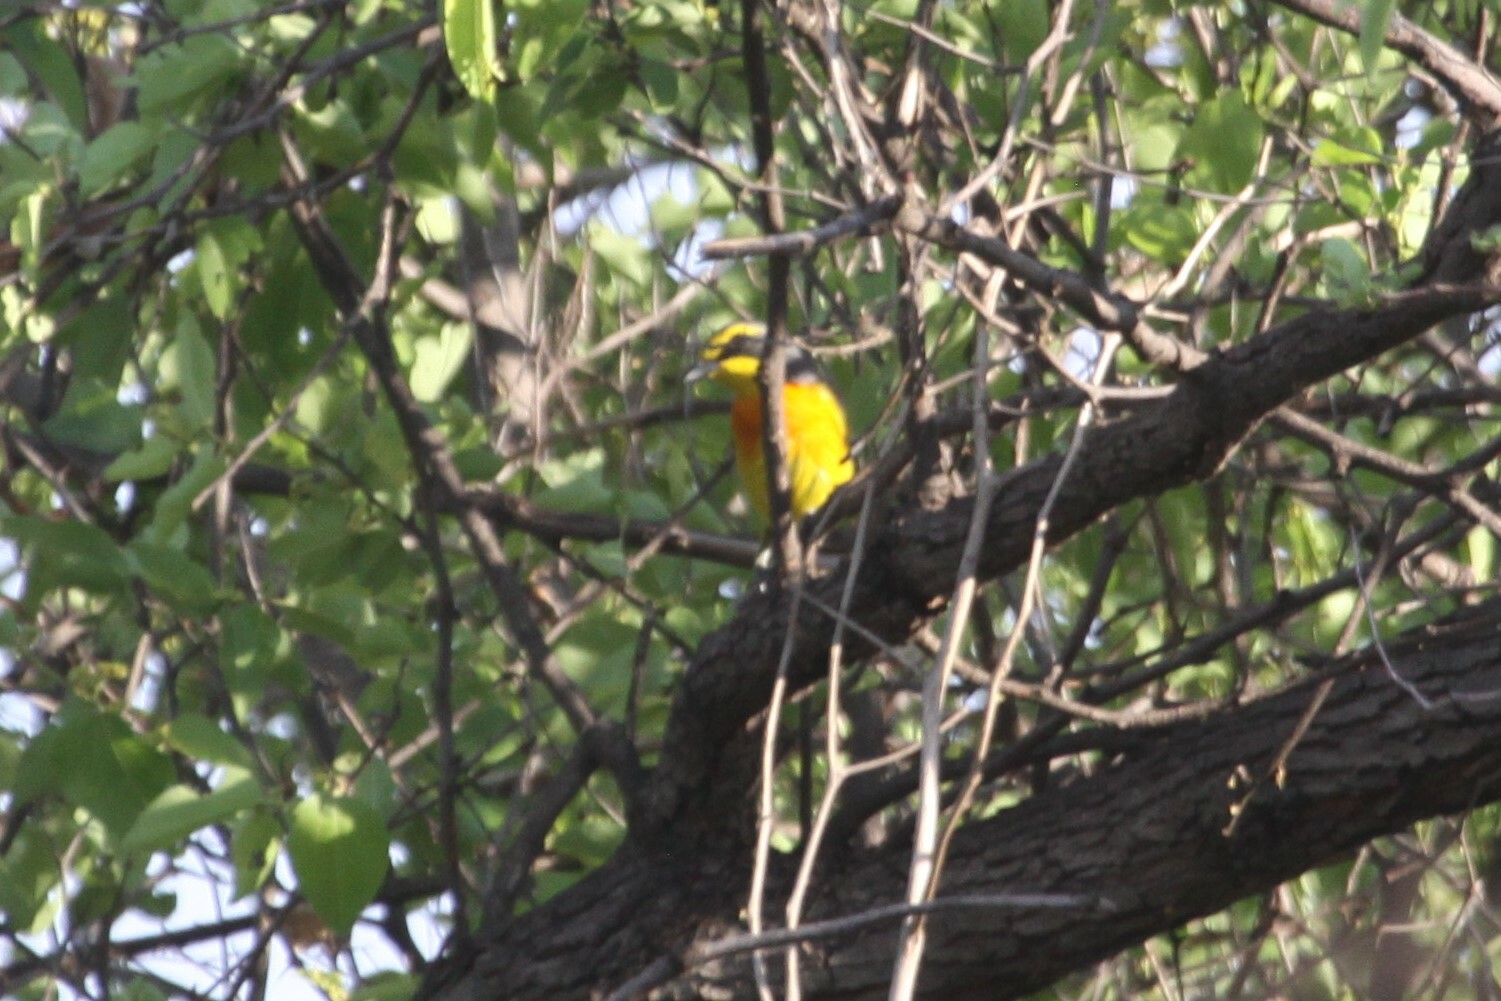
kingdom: Animalia
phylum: Chordata
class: Aves
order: Passeriformes
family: Malaconotidae
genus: Chlorophoneus
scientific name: Chlorophoneus sulfureopectus
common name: Orange-breasted bushshrike
